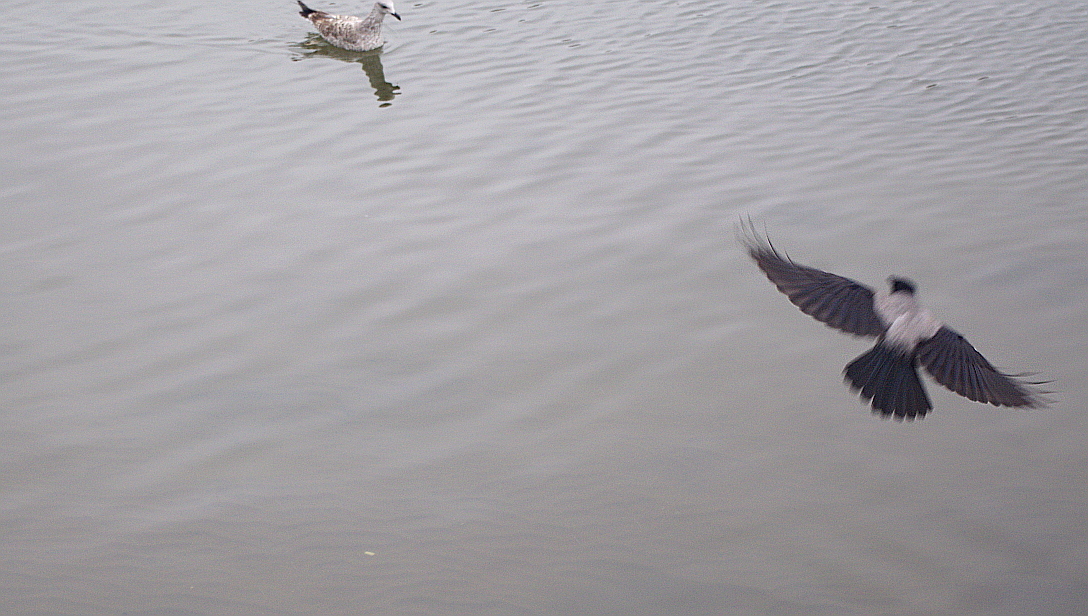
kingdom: Animalia
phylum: Chordata
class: Aves
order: Passeriformes
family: Corvidae
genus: Corvus
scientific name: Corvus cornix
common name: Hooded crow
